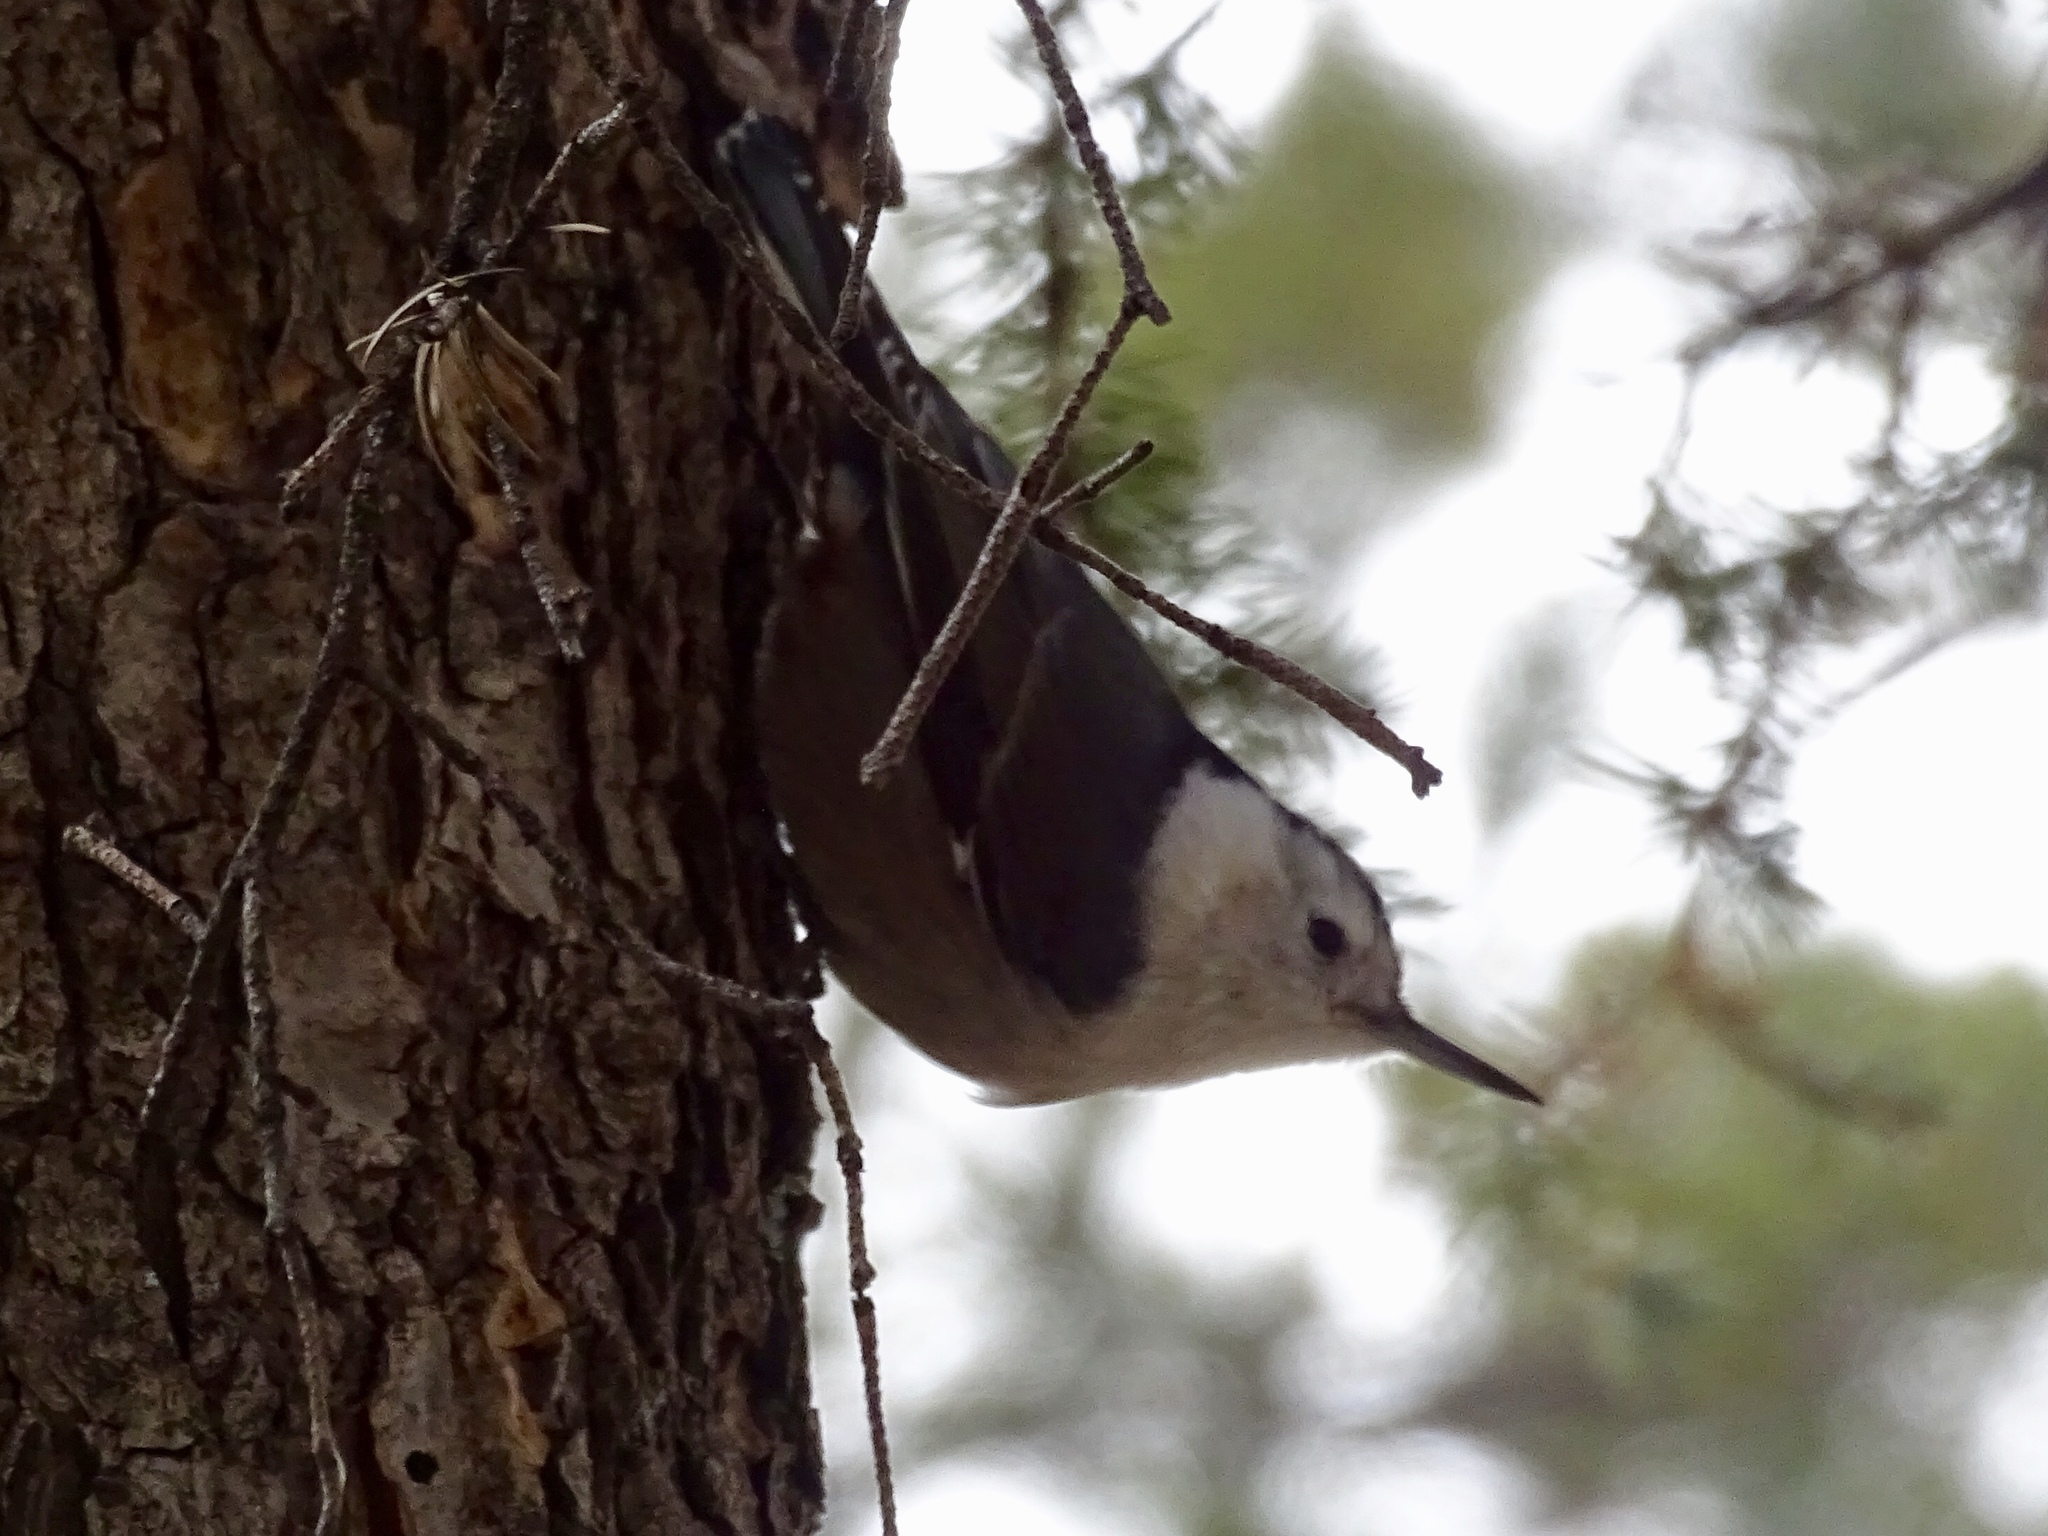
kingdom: Animalia
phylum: Chordata
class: Aves
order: Passeriformes
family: Sittidae
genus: Sitta
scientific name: Sitta carolinensis
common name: White-breasted nuthatch
